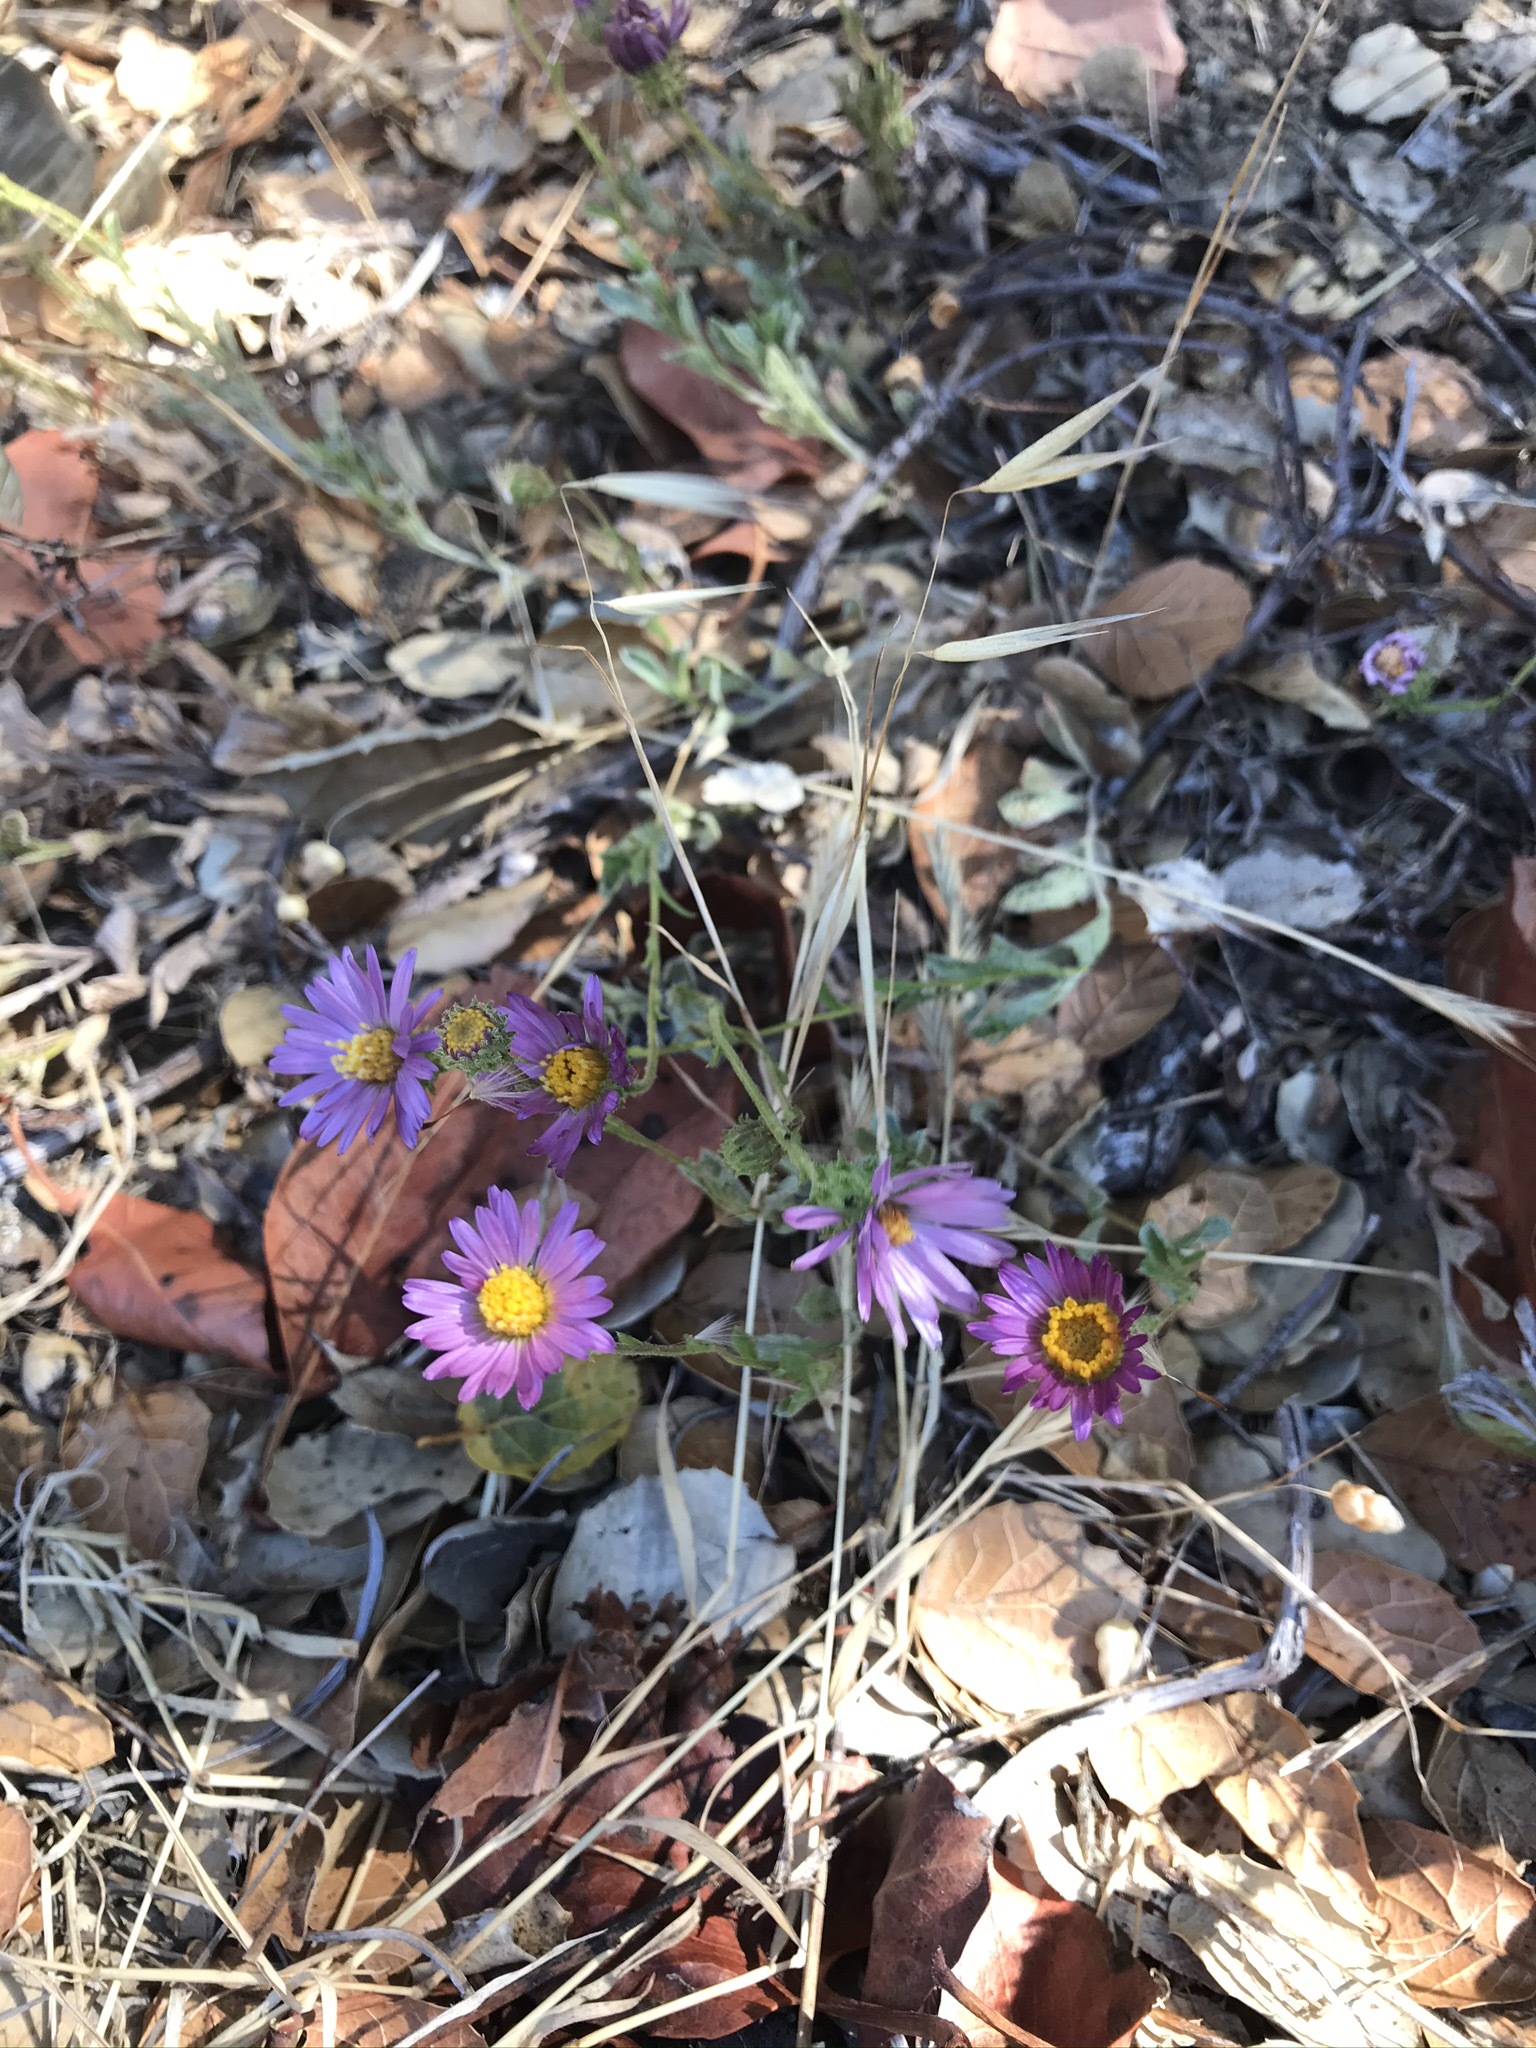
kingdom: Plantae
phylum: Tracheophyta
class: Magnoliopsida
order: Asterales
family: Asteraceae
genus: Corethrogyne
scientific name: Corethrogyne filaginifolia
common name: Sand-aster
